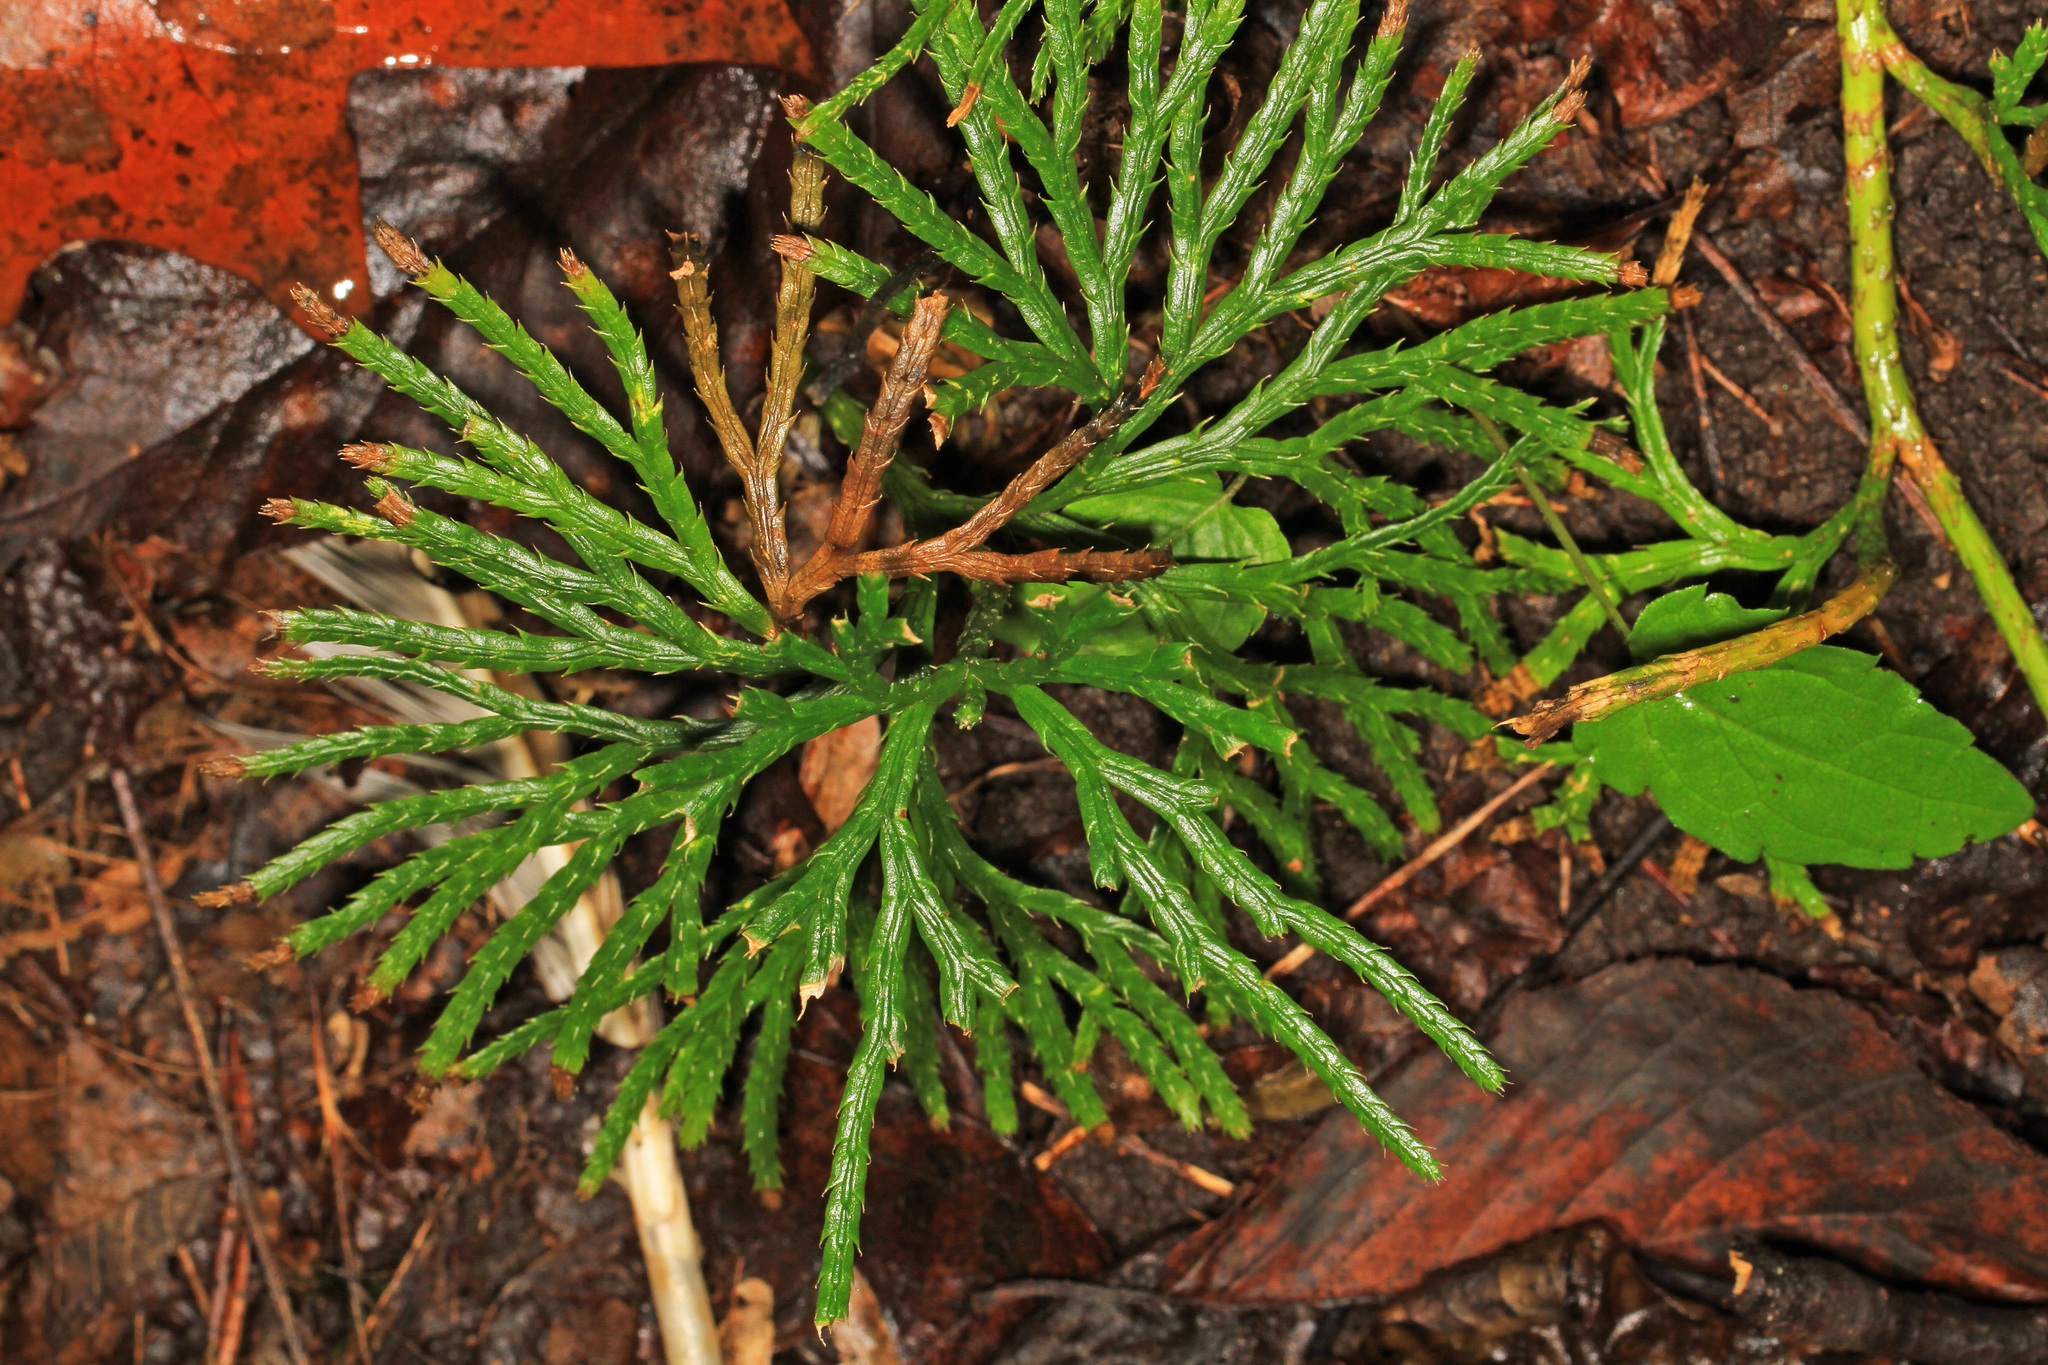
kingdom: Plantae
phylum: Tracheophyta
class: Lycopodiopsida
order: Lycopodiales
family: Lycopodiaceae
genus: Diphasiastrum
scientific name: Diphasiastrum digitatum
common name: Southern running-pine
